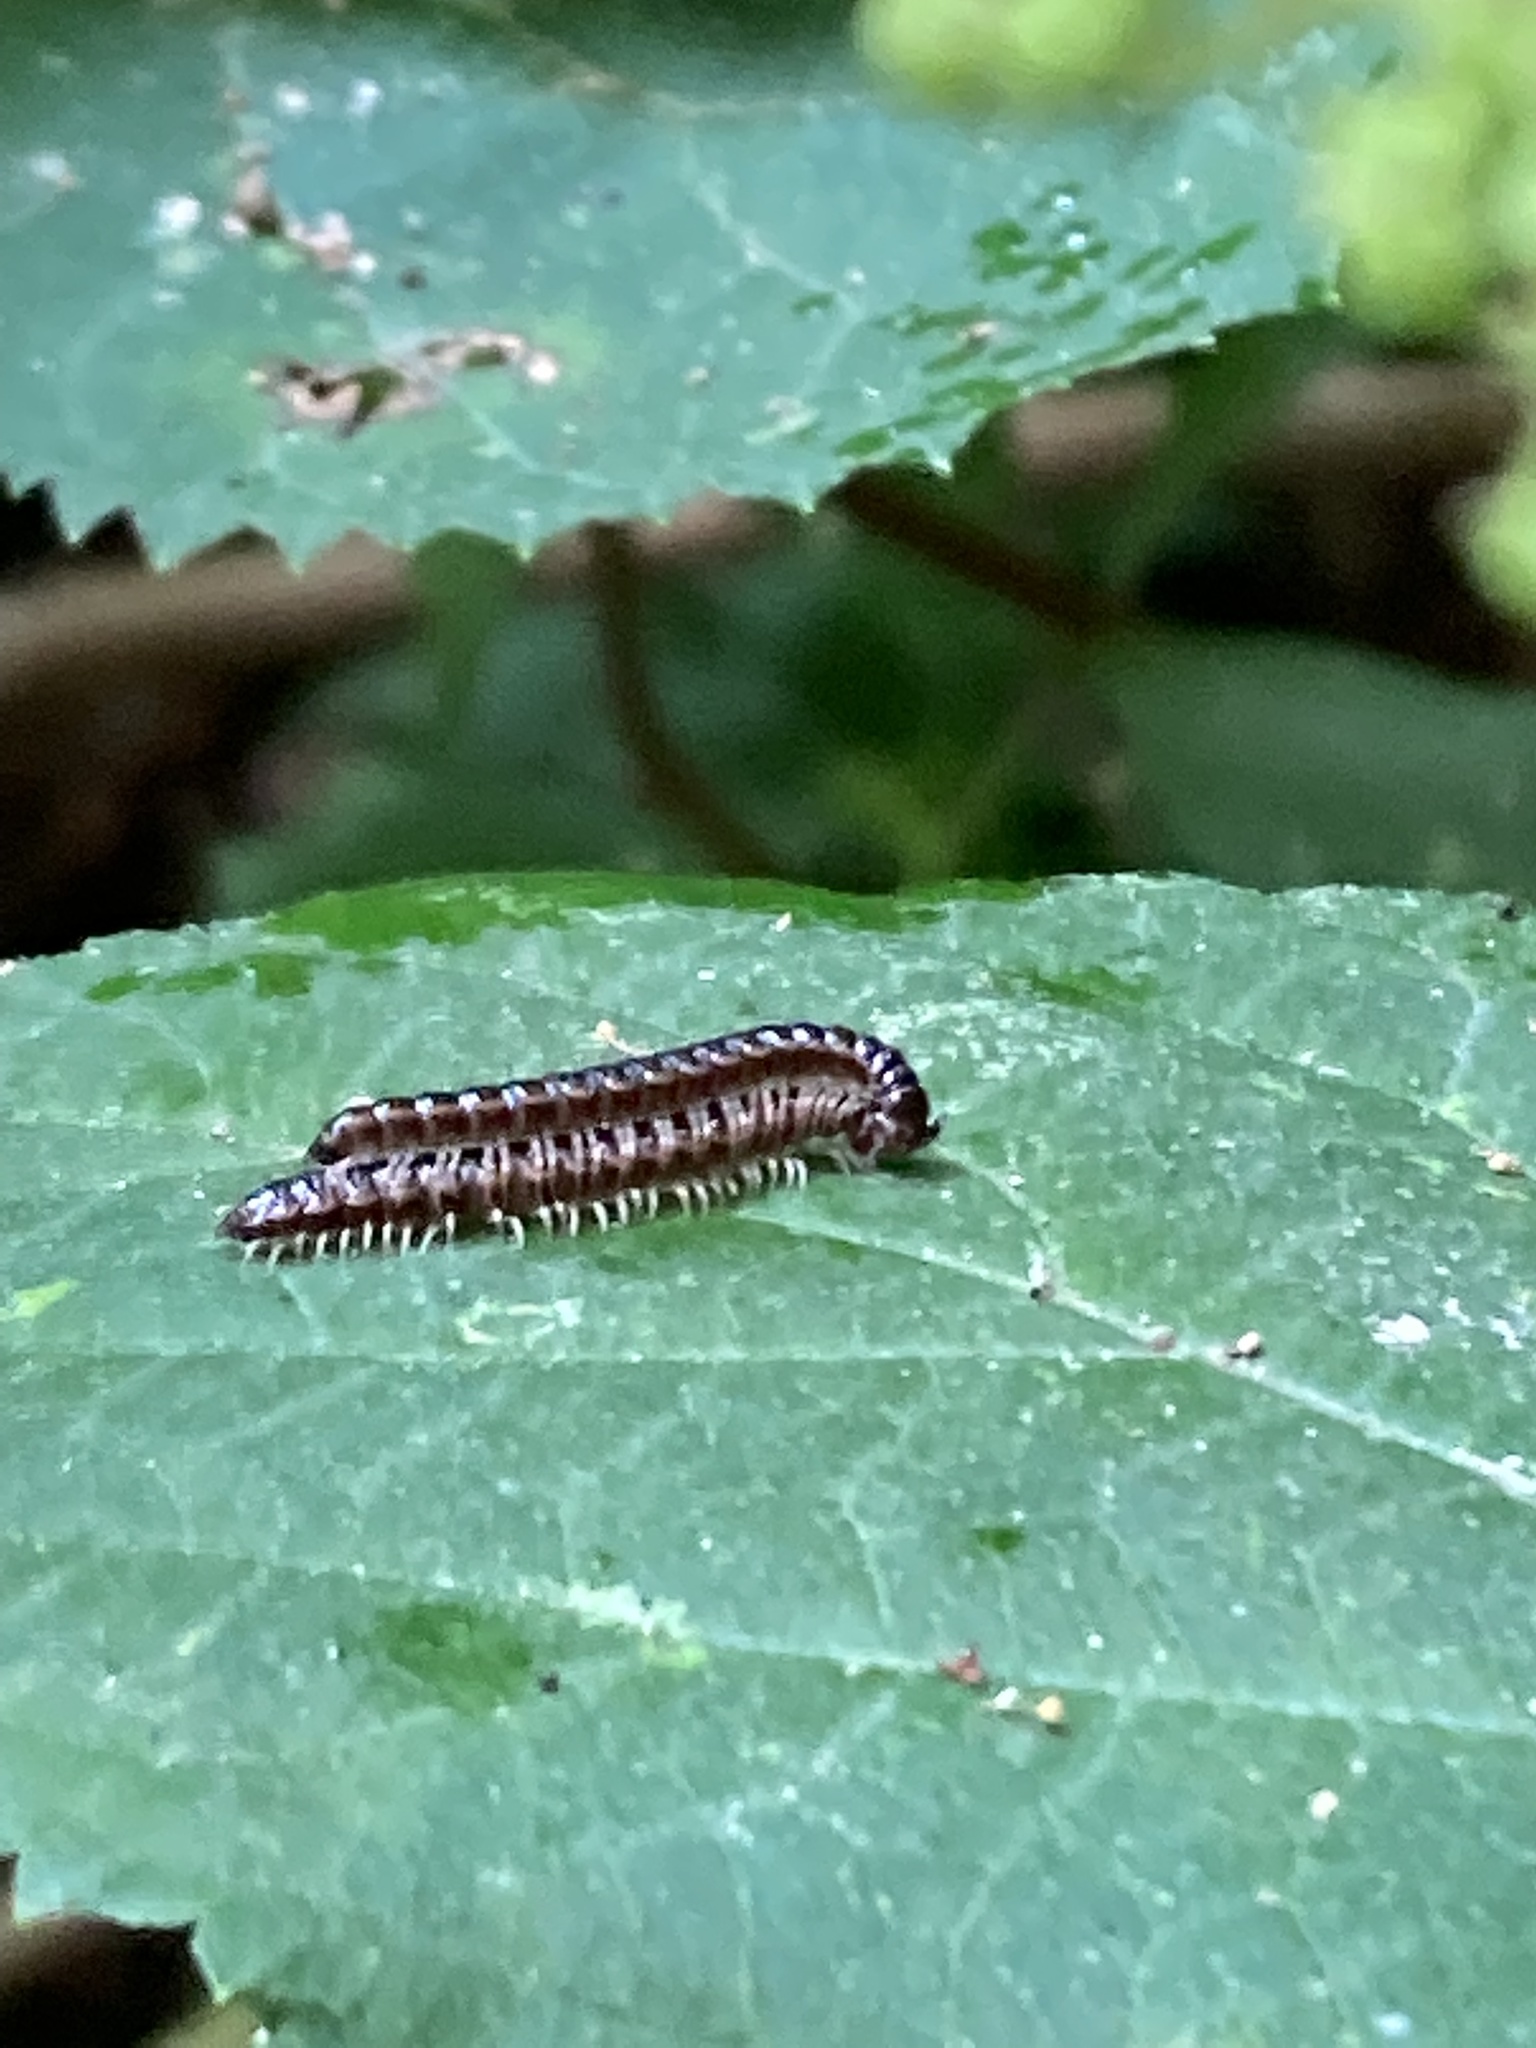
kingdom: Animalia
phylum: Arthropoda
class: Diplopoda
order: Polydesmida
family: Paradoxosomatidae
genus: Oxidus
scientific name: Oxidus gracilis
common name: Greenhouse millipede
